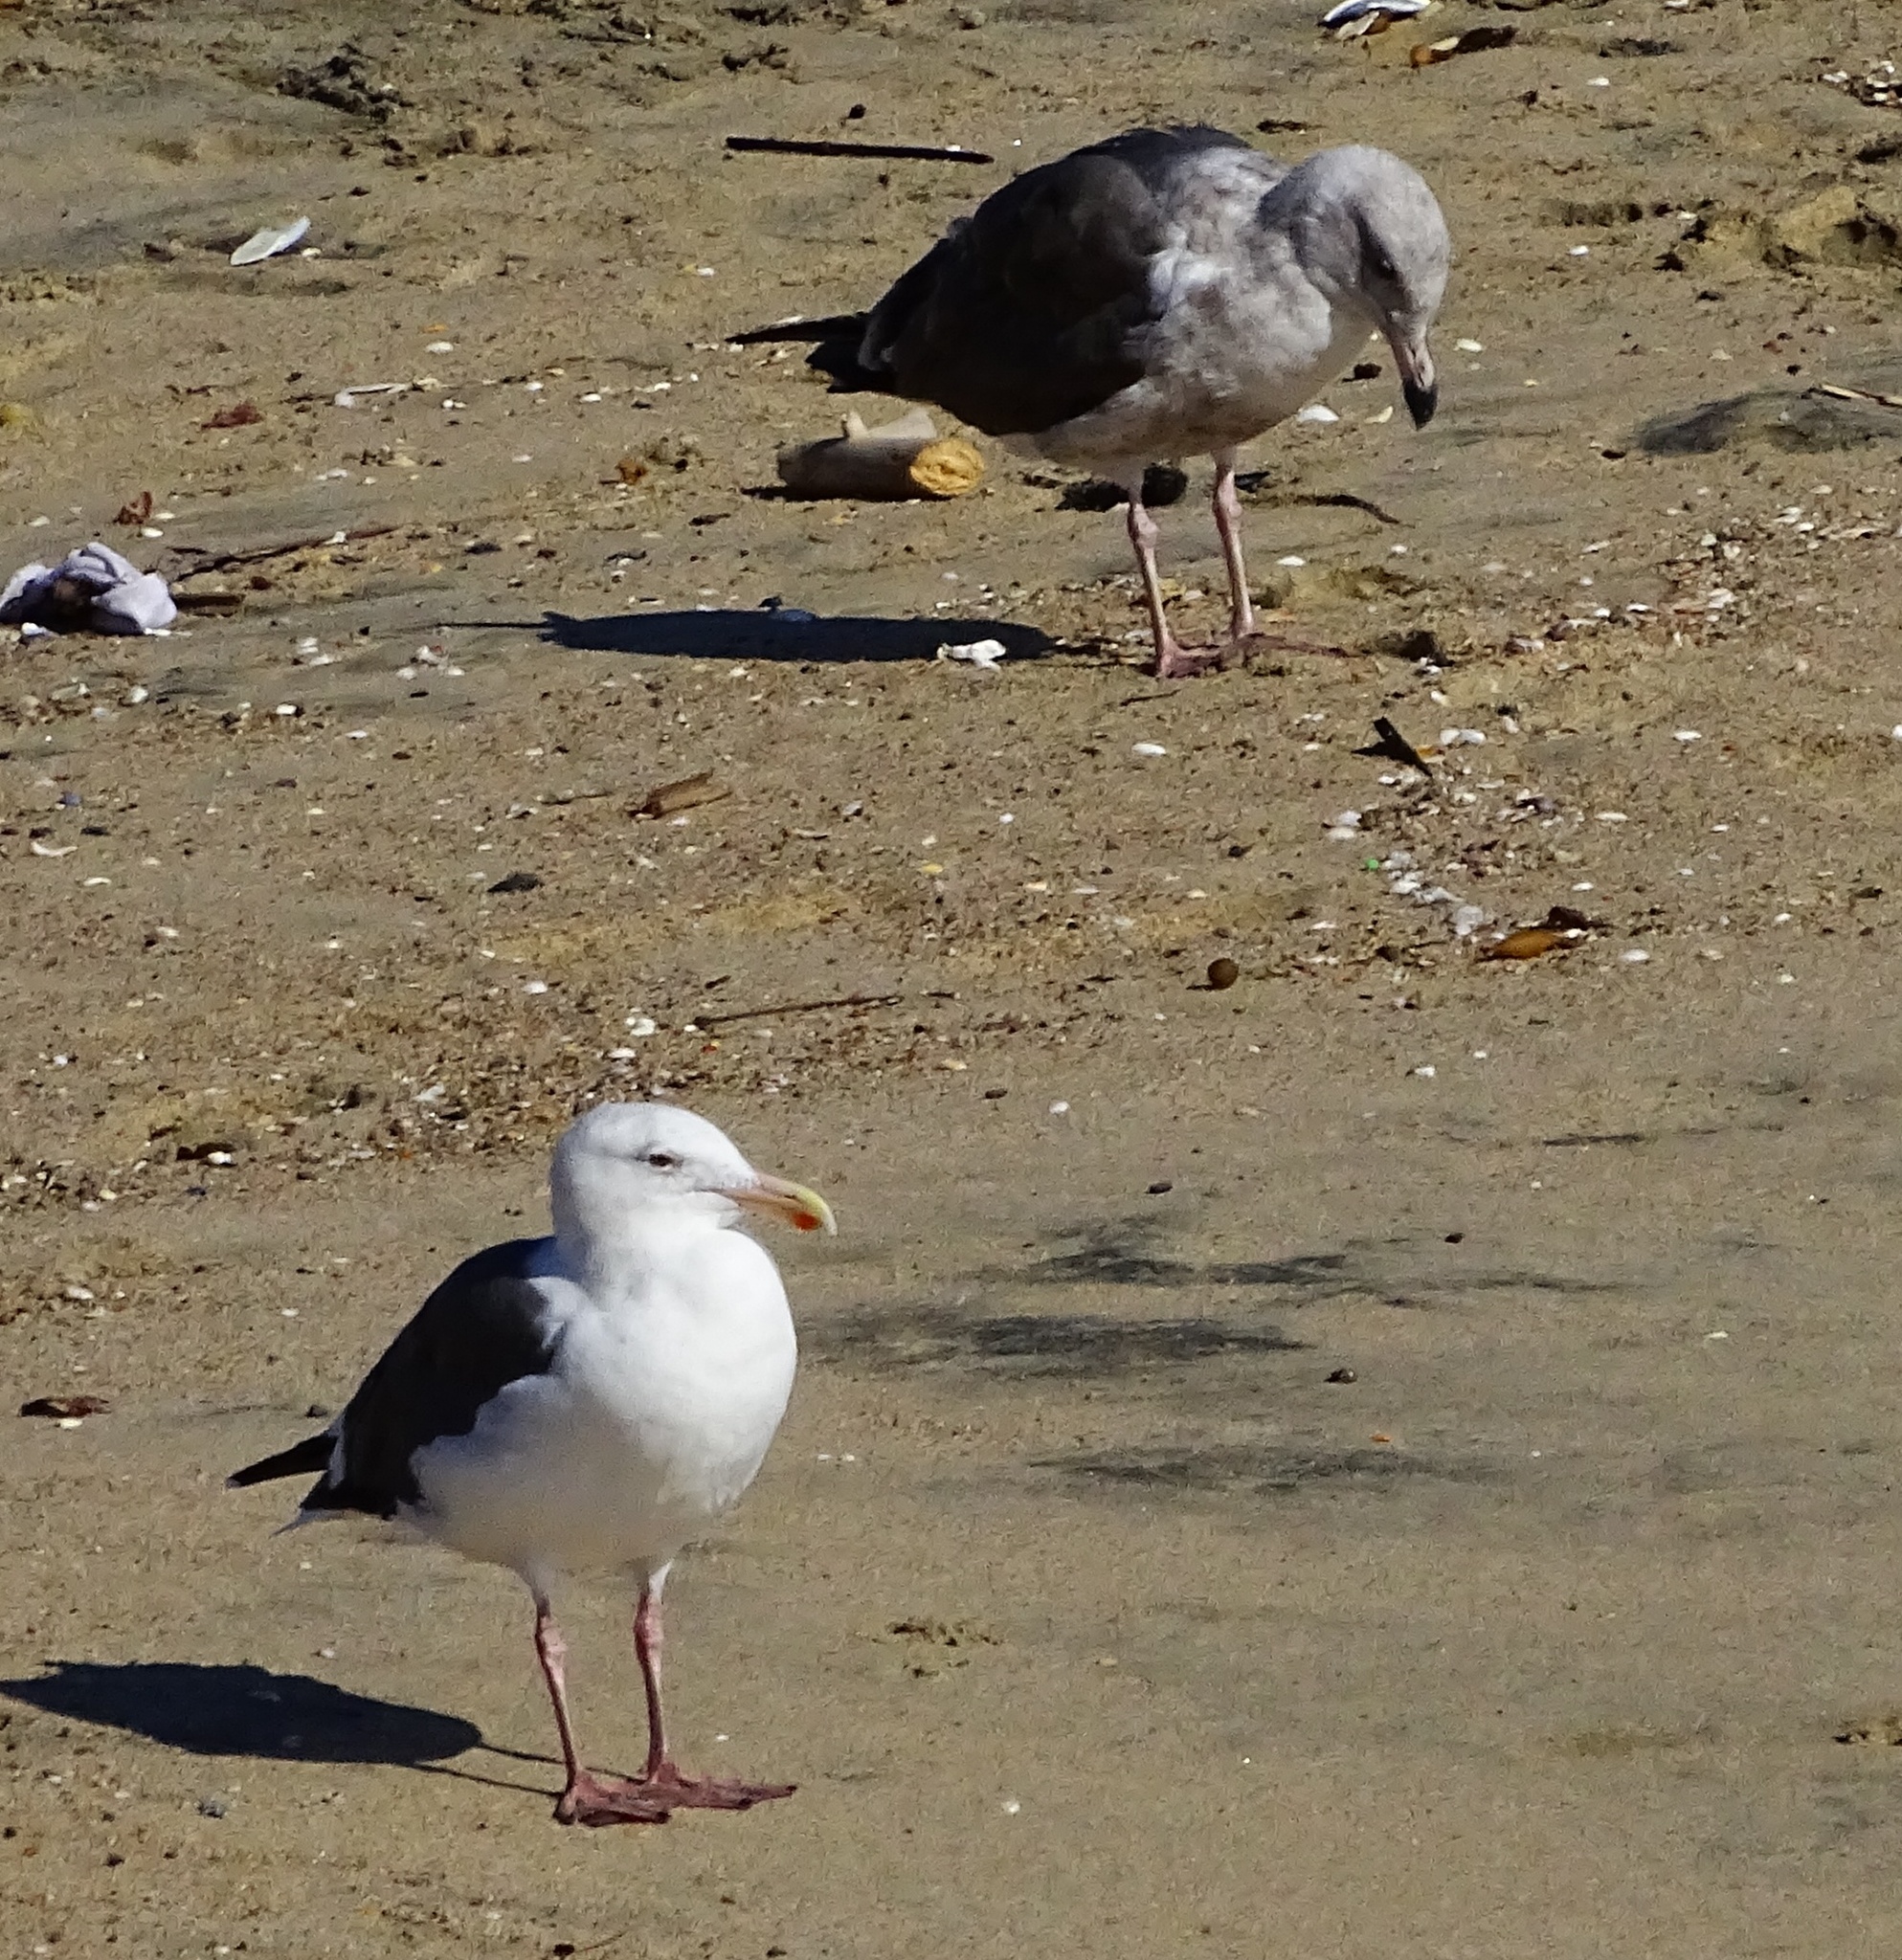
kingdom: Animalia
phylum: Chordata
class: Aves
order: Charadriiformes
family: Laridae
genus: Larus
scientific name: Larus occidentalis
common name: Western gull
